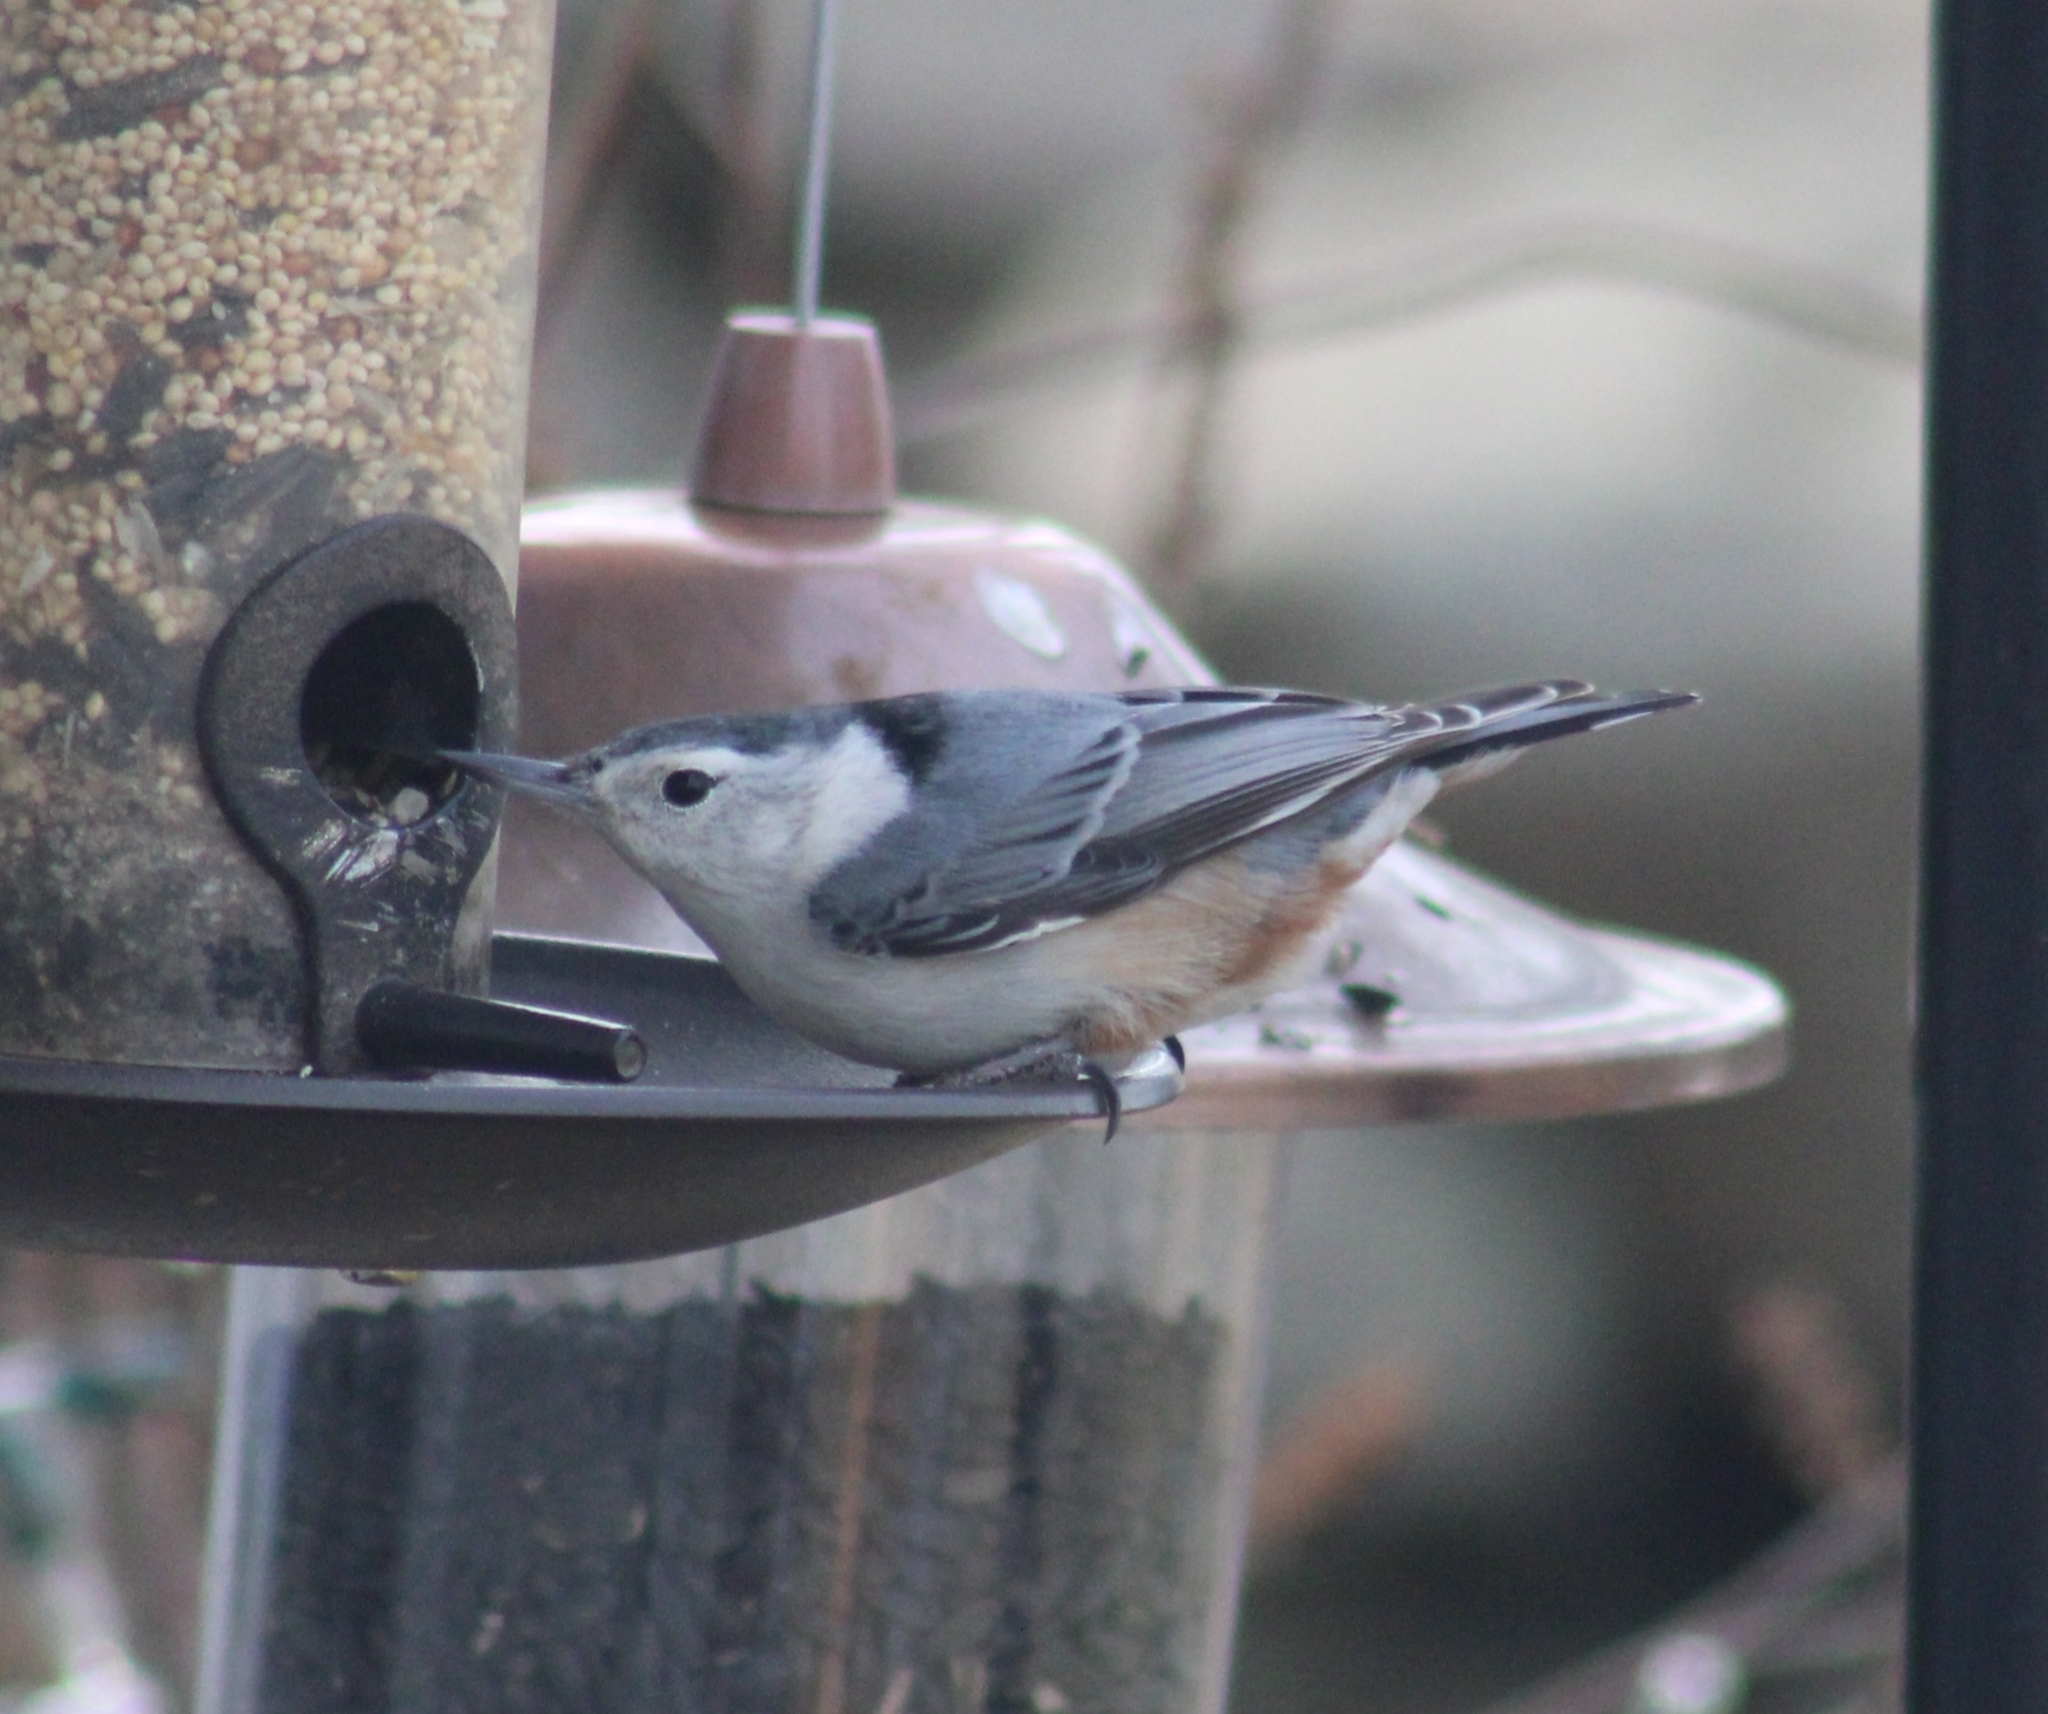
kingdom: Animalia
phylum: Chordata
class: Aves
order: Passeriformes
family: Sittidae
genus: Sitta
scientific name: Sitta carolinensis
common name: White-breasted nuthatch
